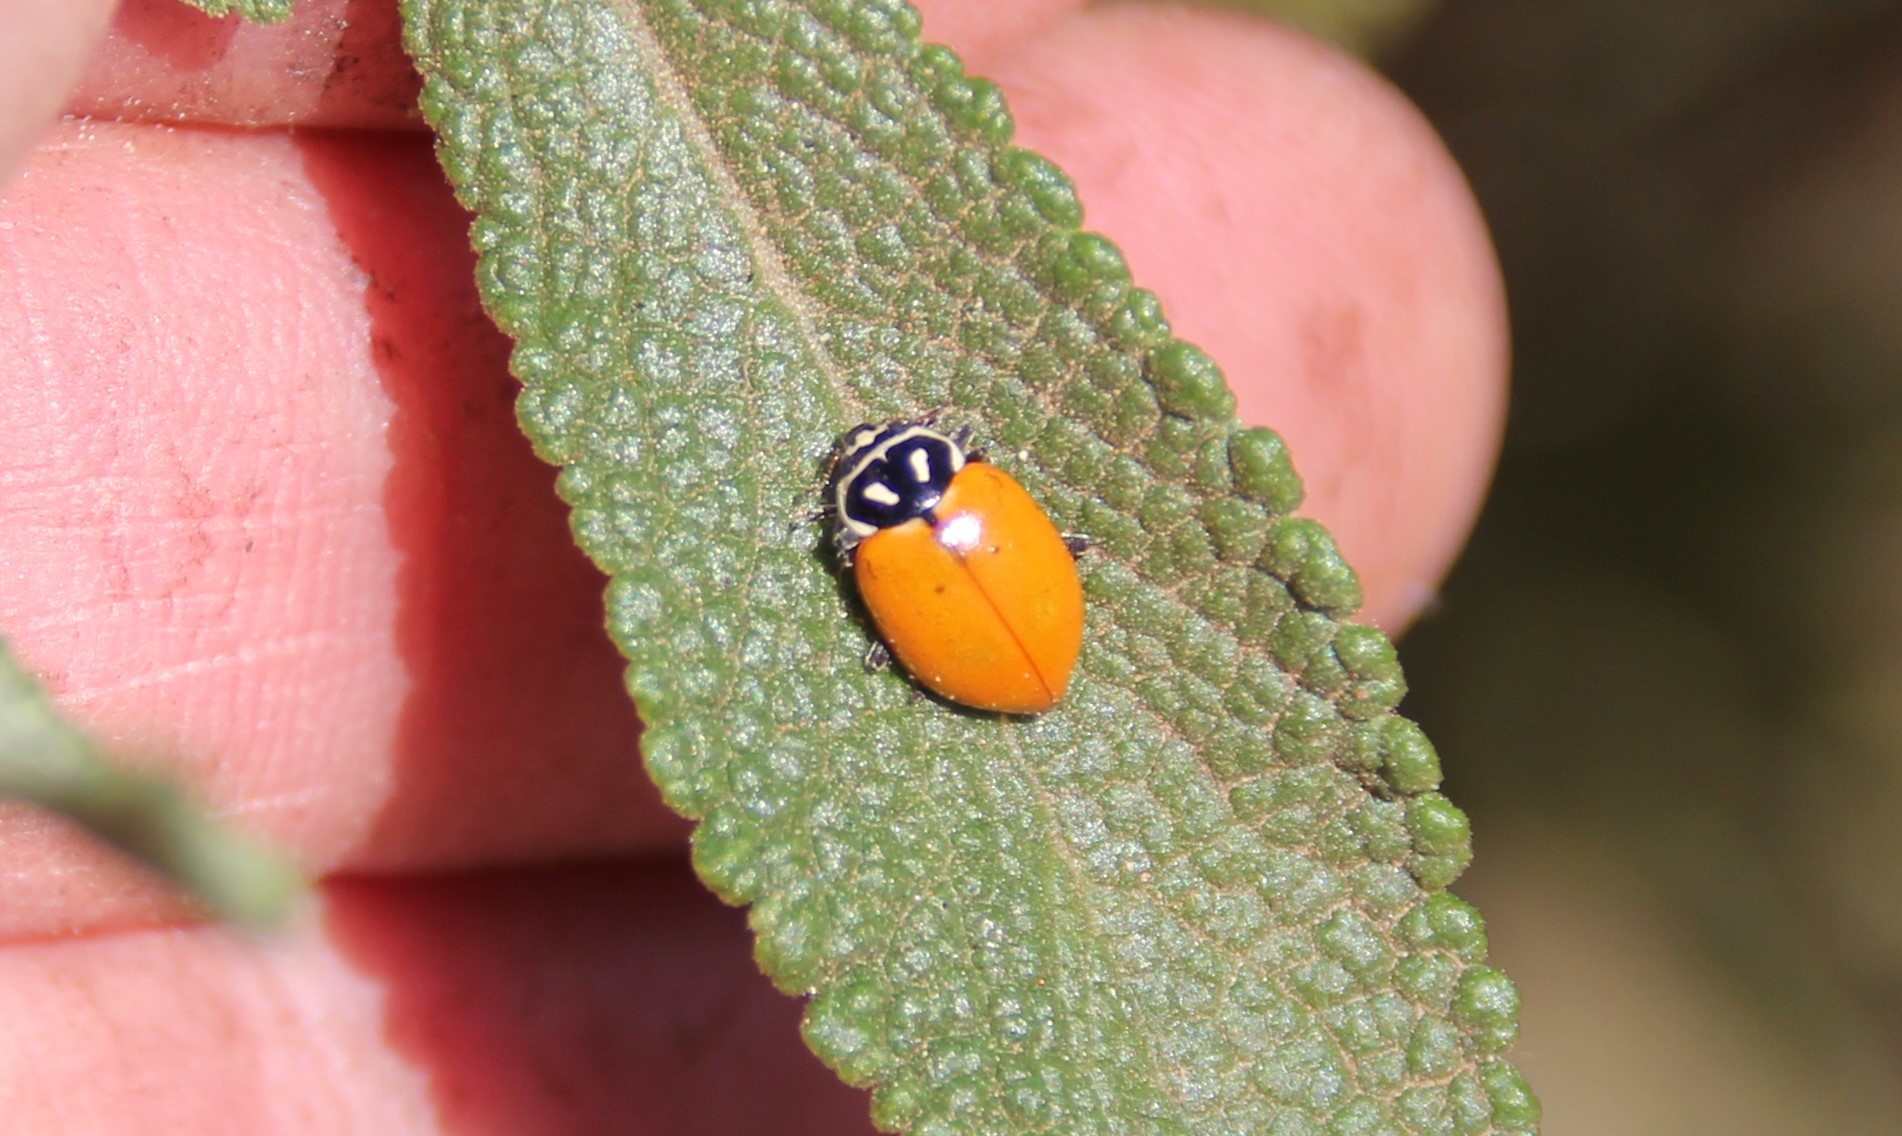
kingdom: Animalia
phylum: Arthropoda
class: Insecta
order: Coleoptera
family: Coccinellidae
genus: Hippodamia
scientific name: Hippodamia convergens
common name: Convergent lady beetle
